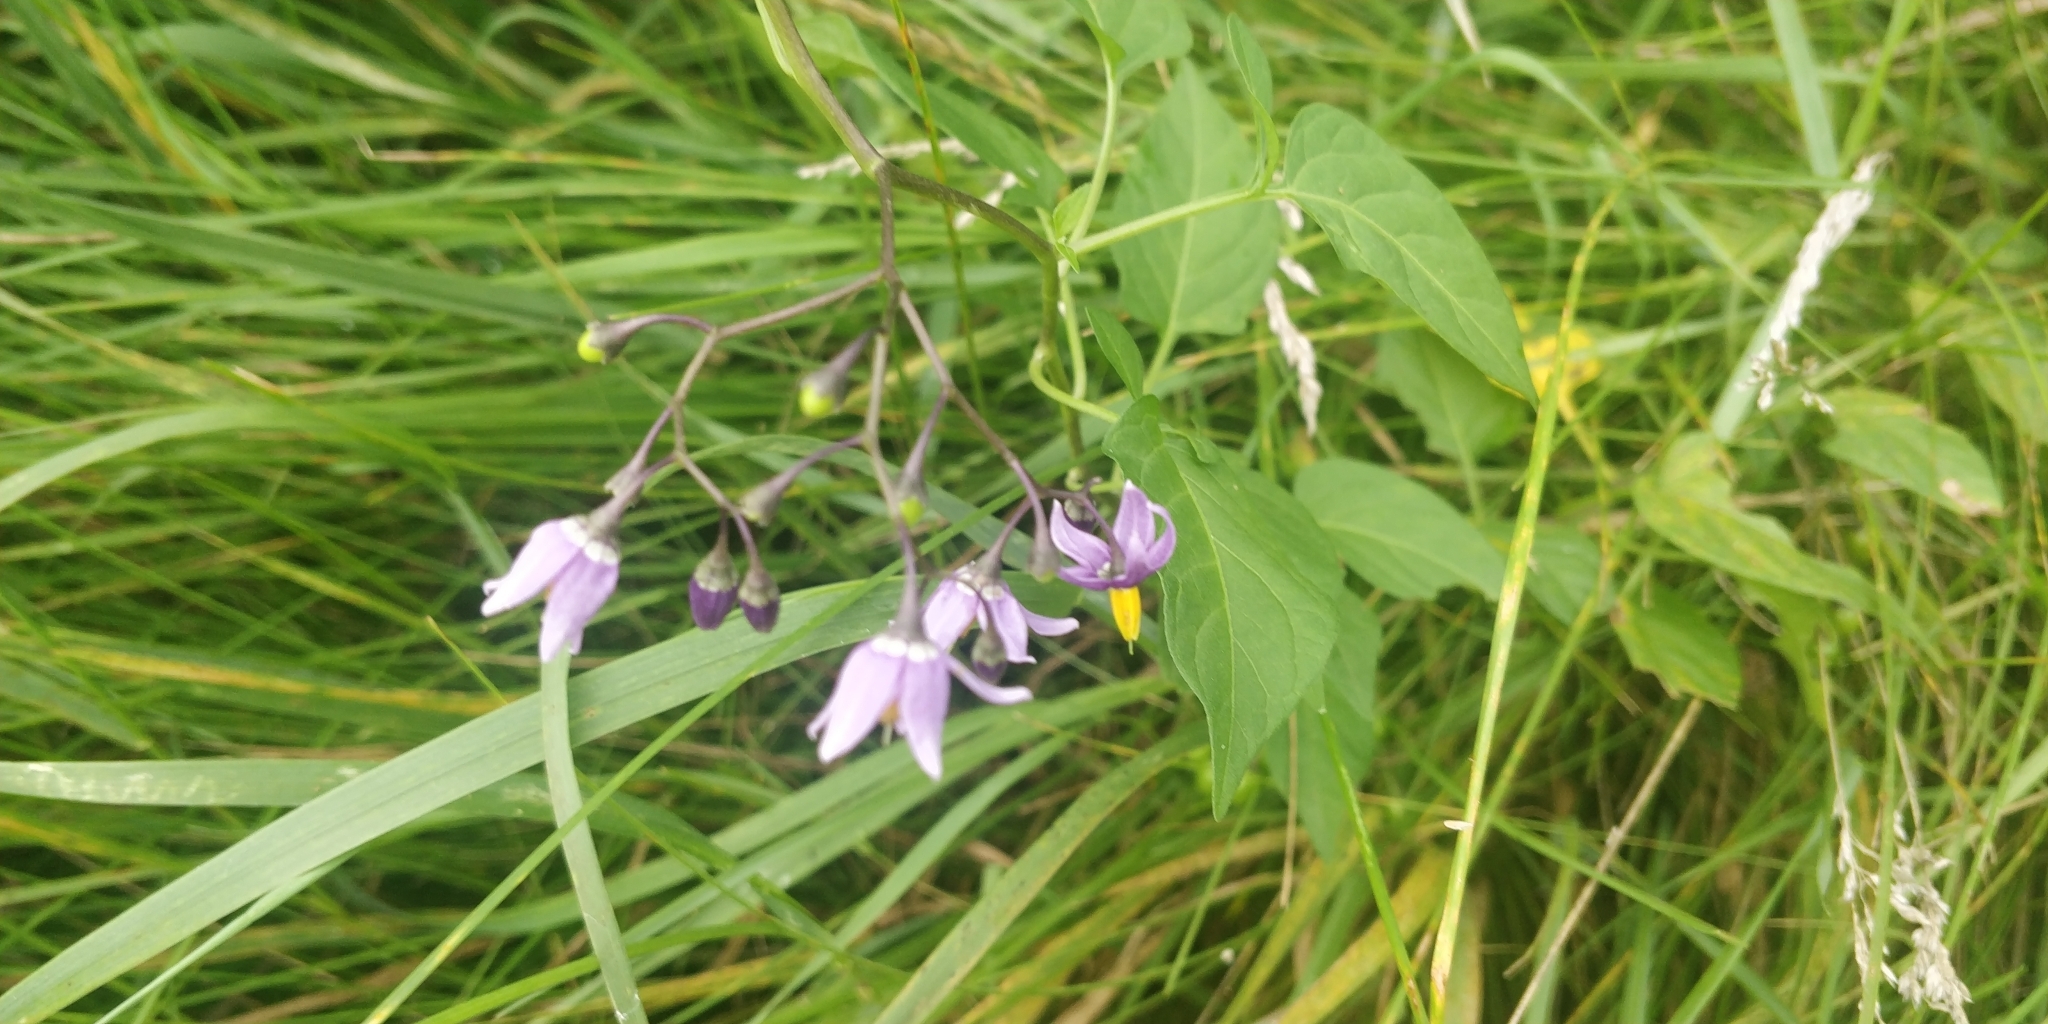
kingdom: Plantae
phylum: Tracheophyta
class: Magnoliopsida
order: Solanales
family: Solanaceae
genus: Solanum
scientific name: Solanum dulcamara
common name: Climbing nightshade
